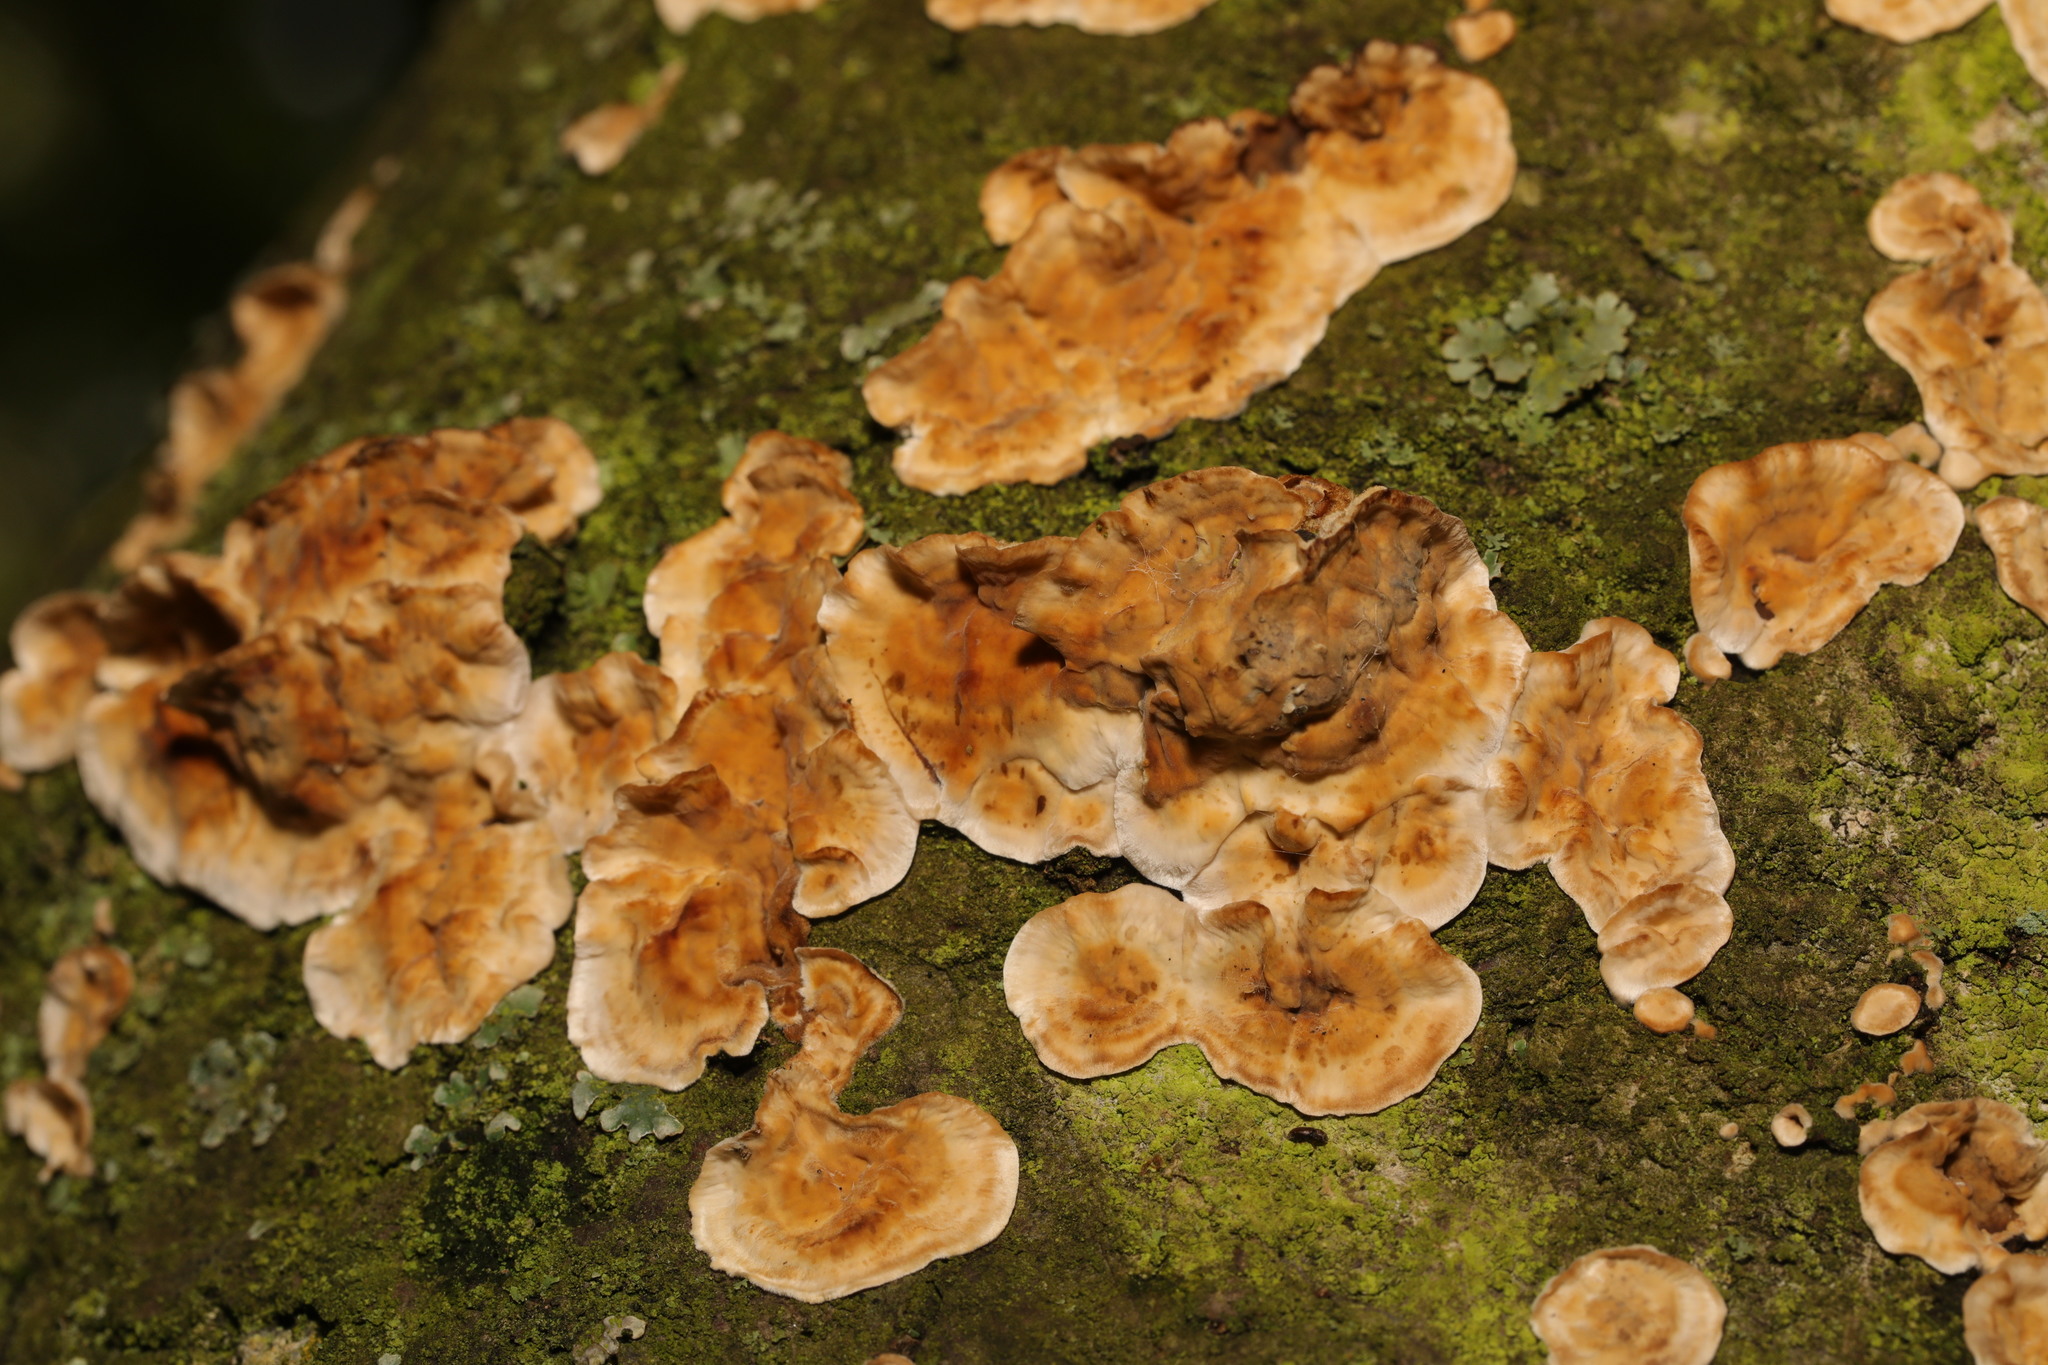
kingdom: Fungi
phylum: Basidiomycota
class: Agaricomycetes
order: Russulales
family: Stereaceae
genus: Stereum
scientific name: Stereum hirsutum
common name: Hairy curtain crust
